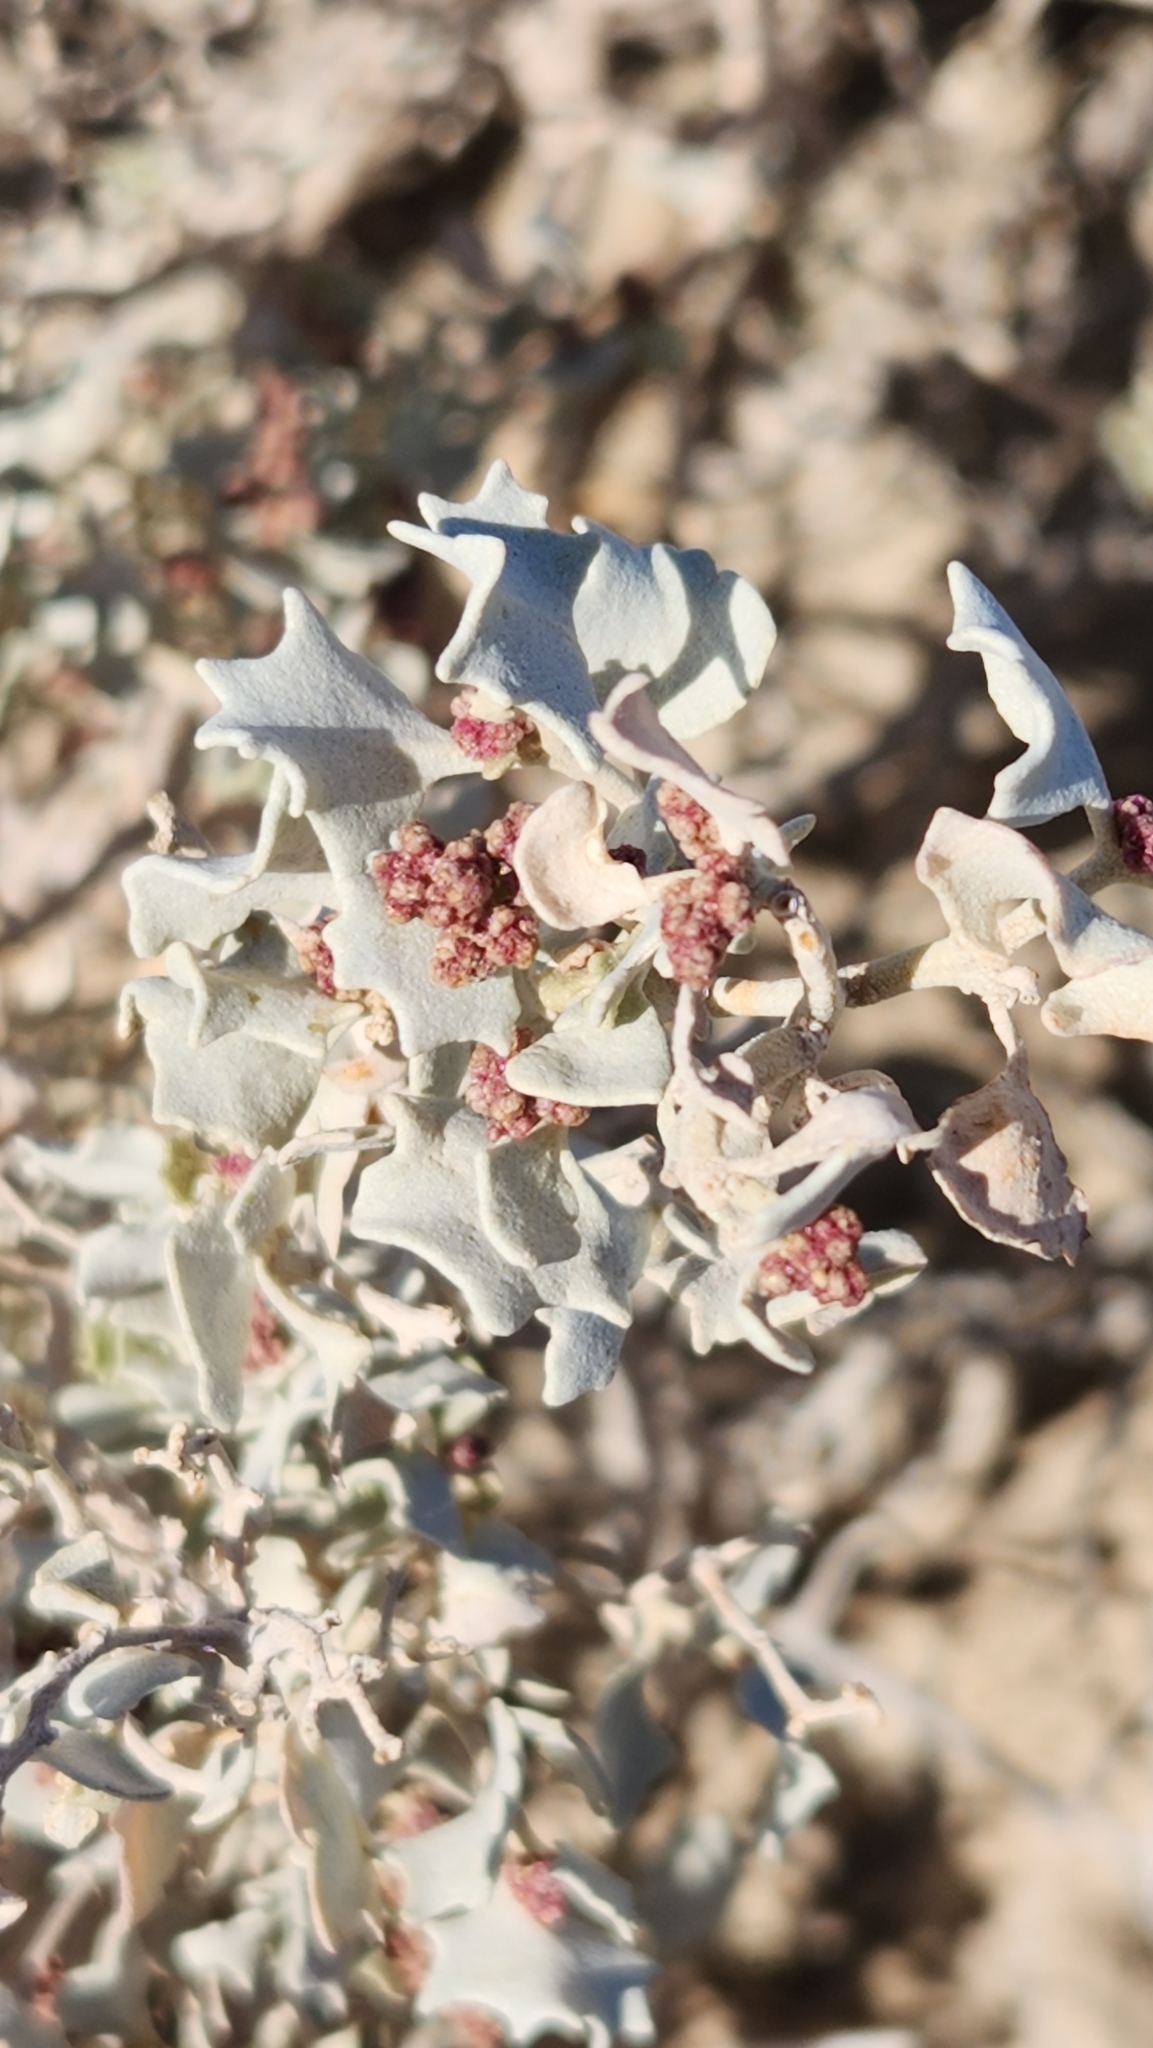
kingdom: Plantae
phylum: Tracheophyta
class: Magnoliopsida
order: Caryophyllales
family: Amaranthaceae
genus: Atriplex
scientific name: Atriplex hymenelytra
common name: Desert-holly
